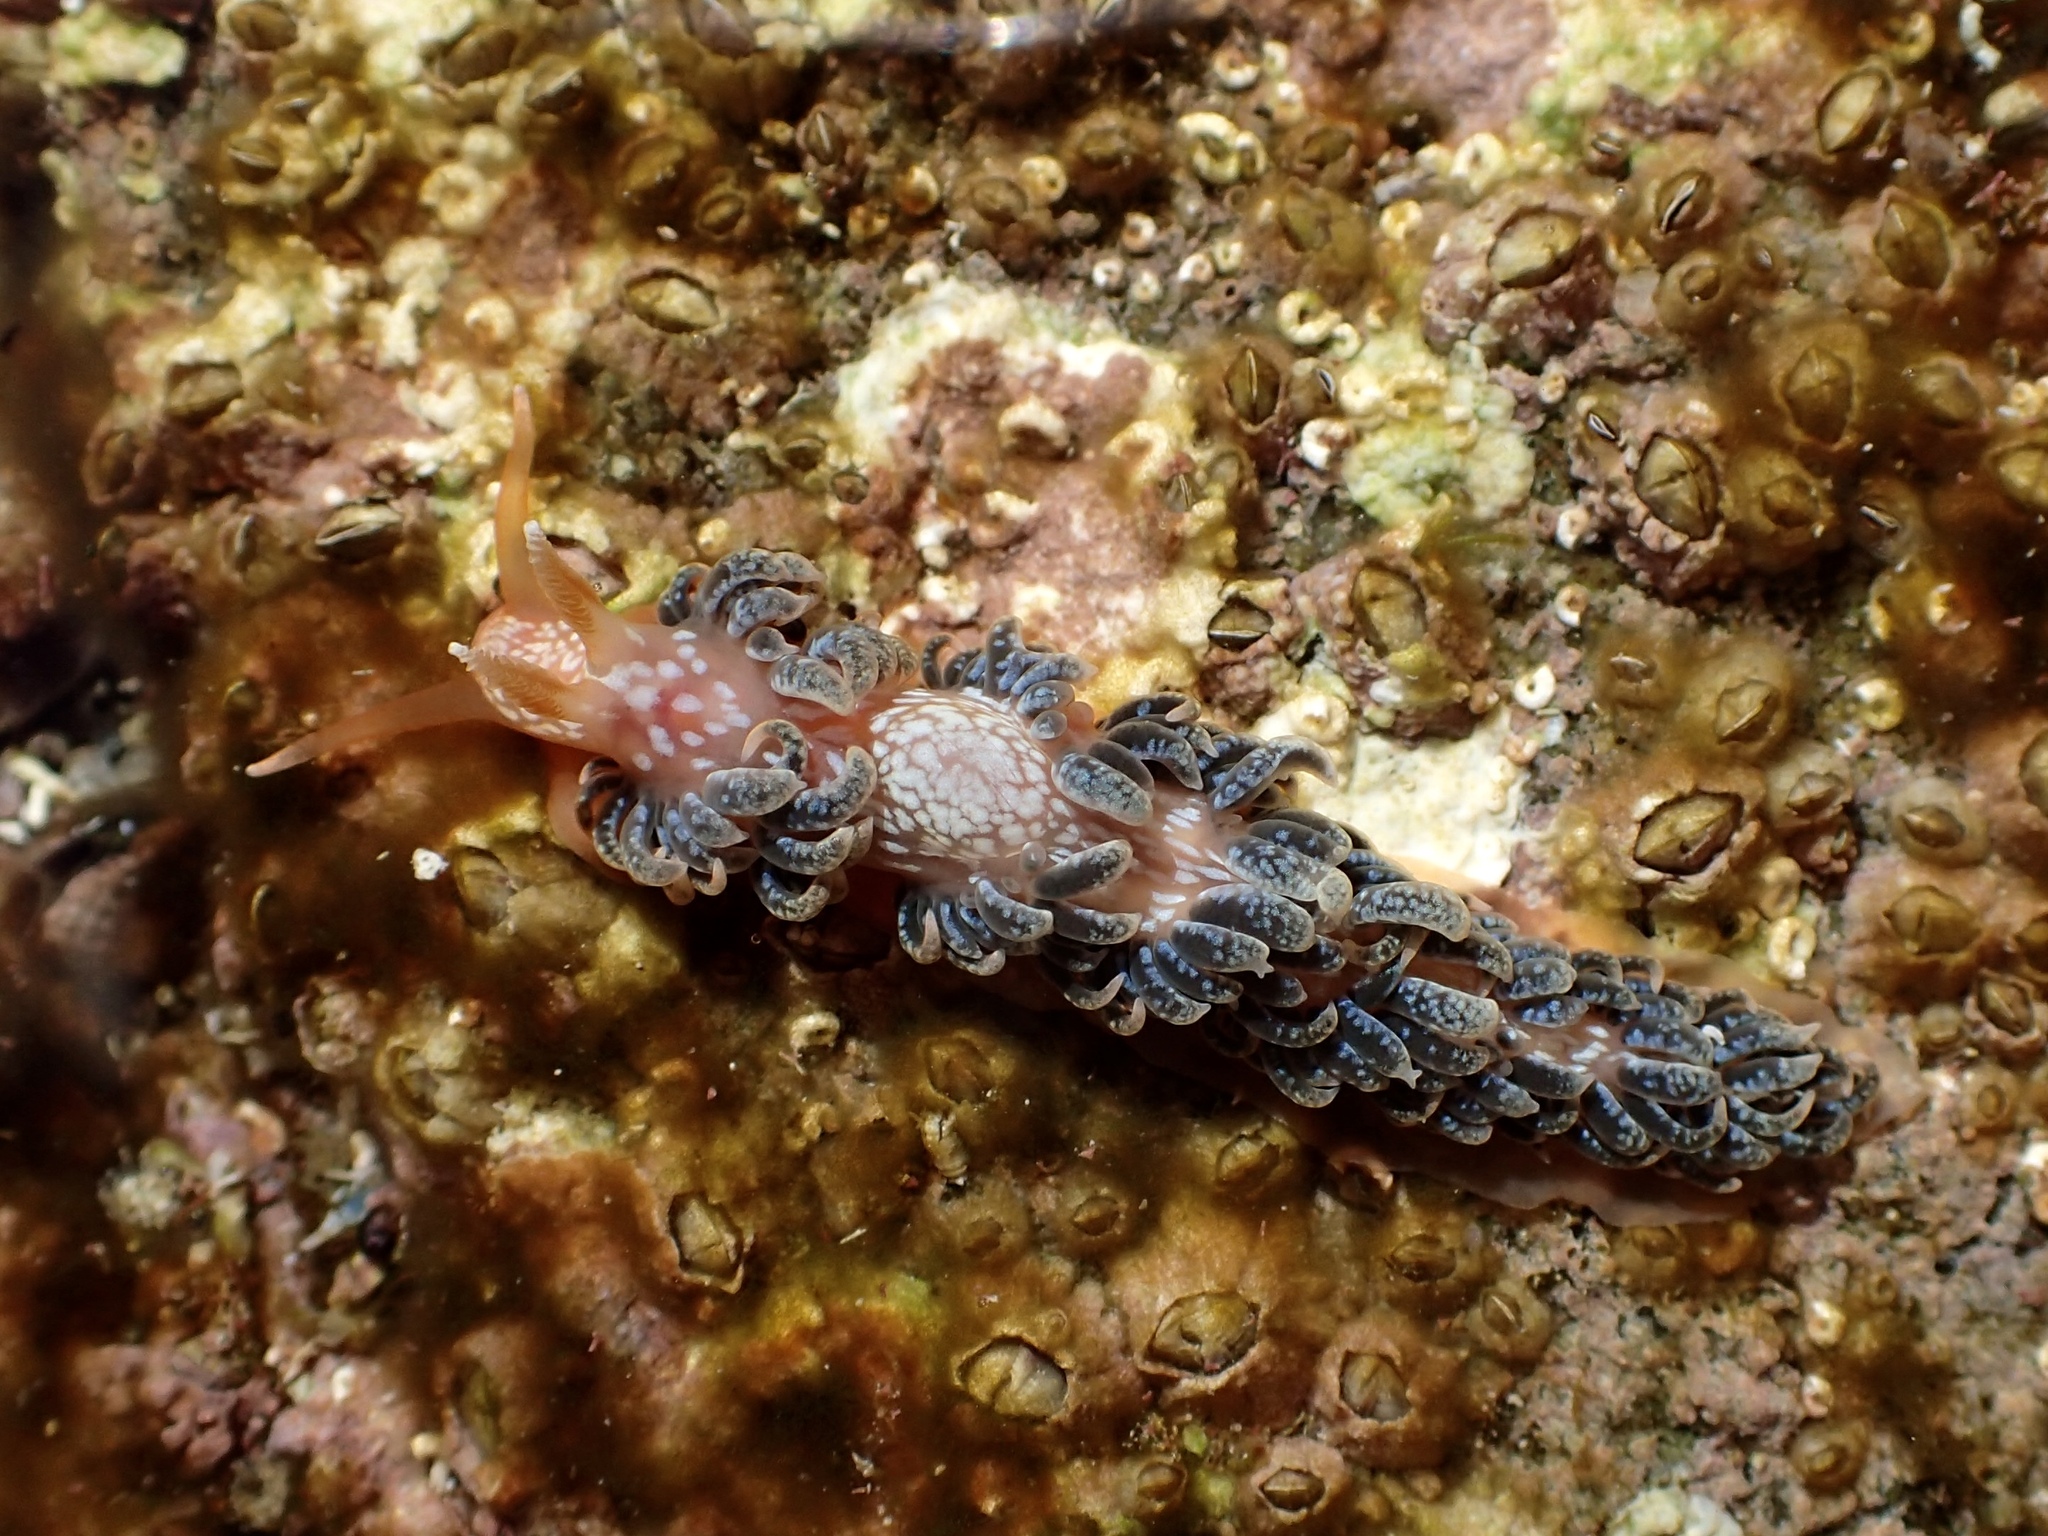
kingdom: Animalia
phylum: Mollusca
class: Gastropoda
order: Nudibranchia
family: Aeolidiidae
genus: Spurilla
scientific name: Spurilla braziliana
